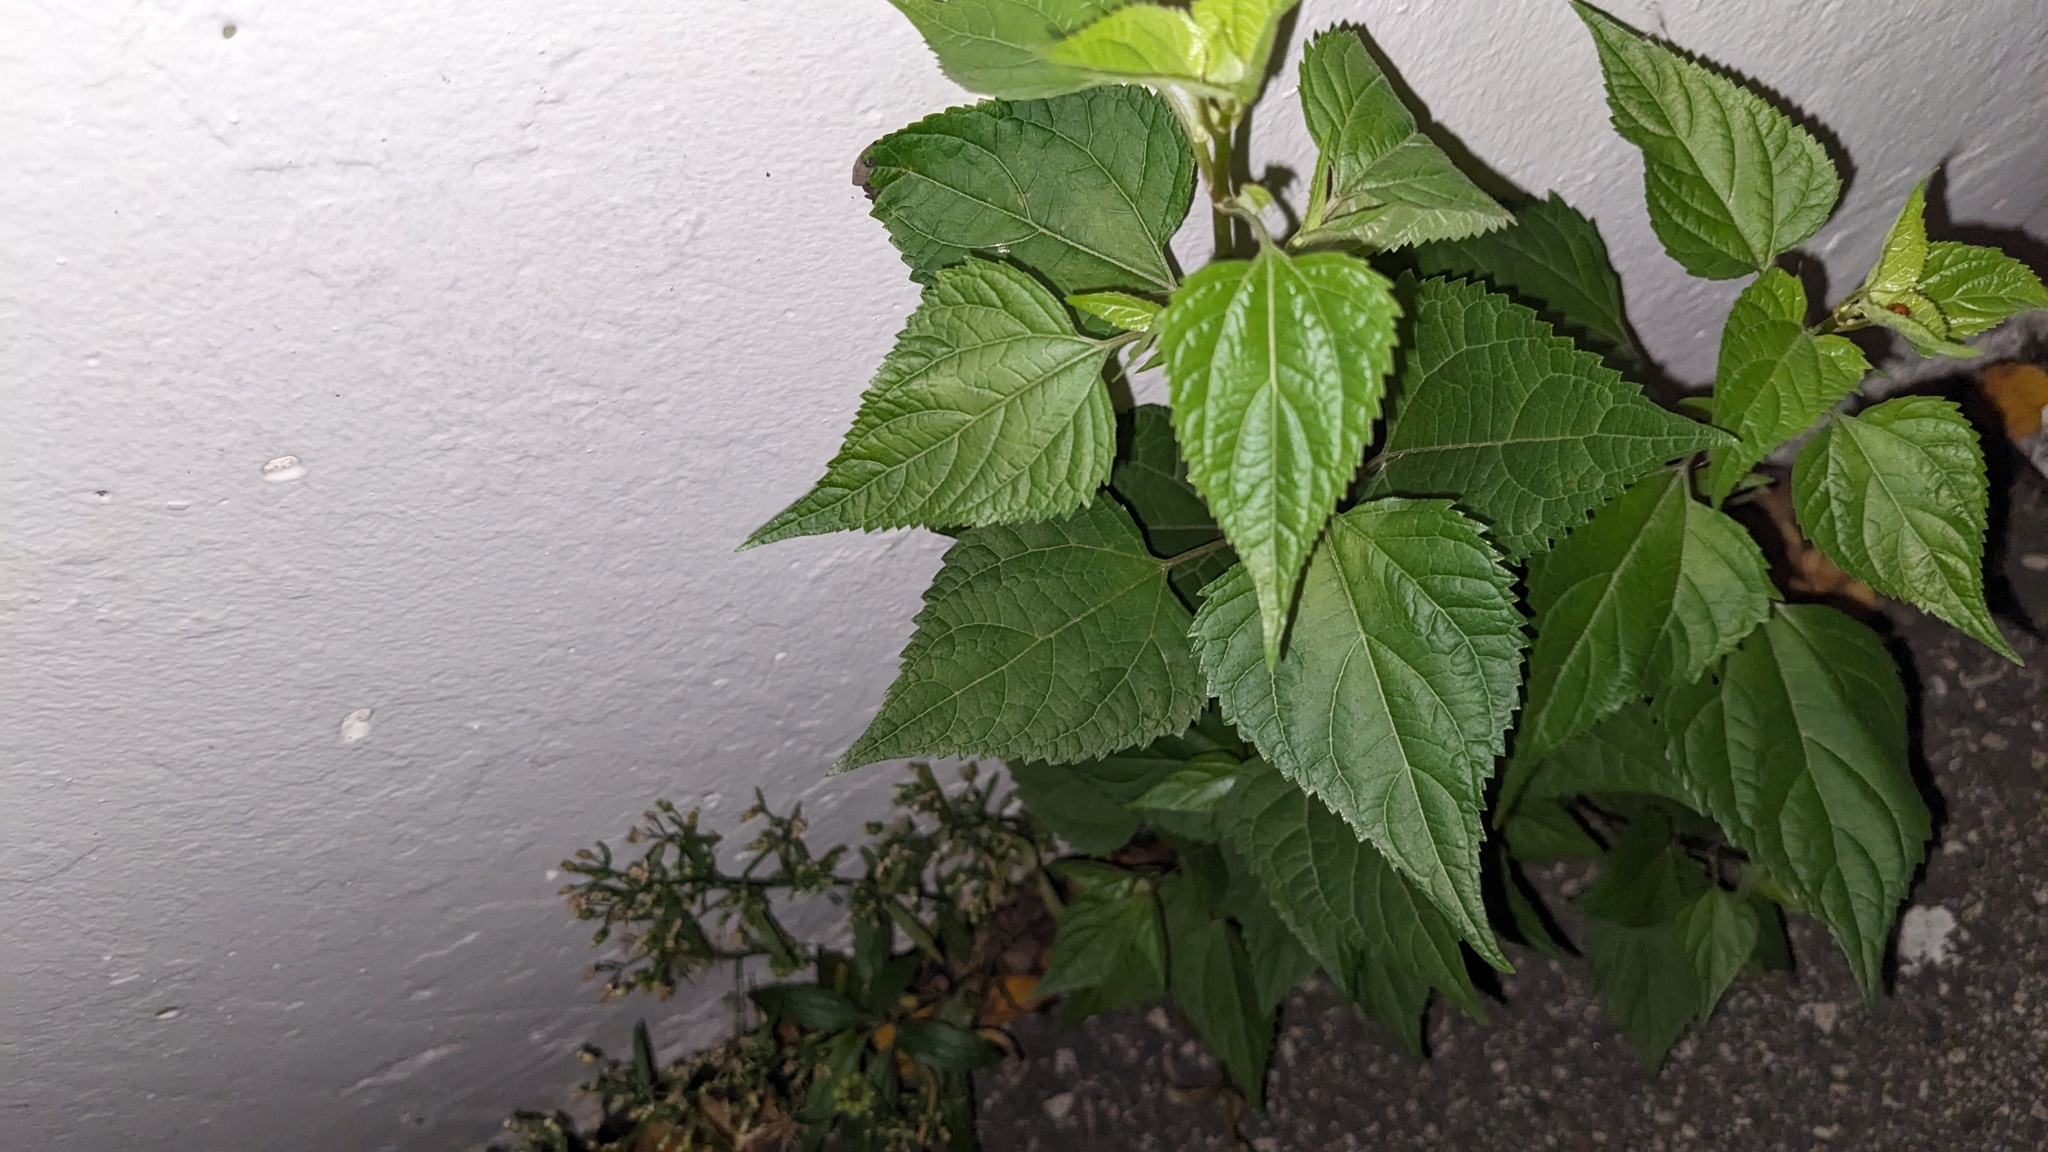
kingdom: Plantae
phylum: Tracheophyta
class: Magnoliopsida
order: Asterales
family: Asteraceae
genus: Ageratina
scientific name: Ageratina altissima
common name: White snakeroot
